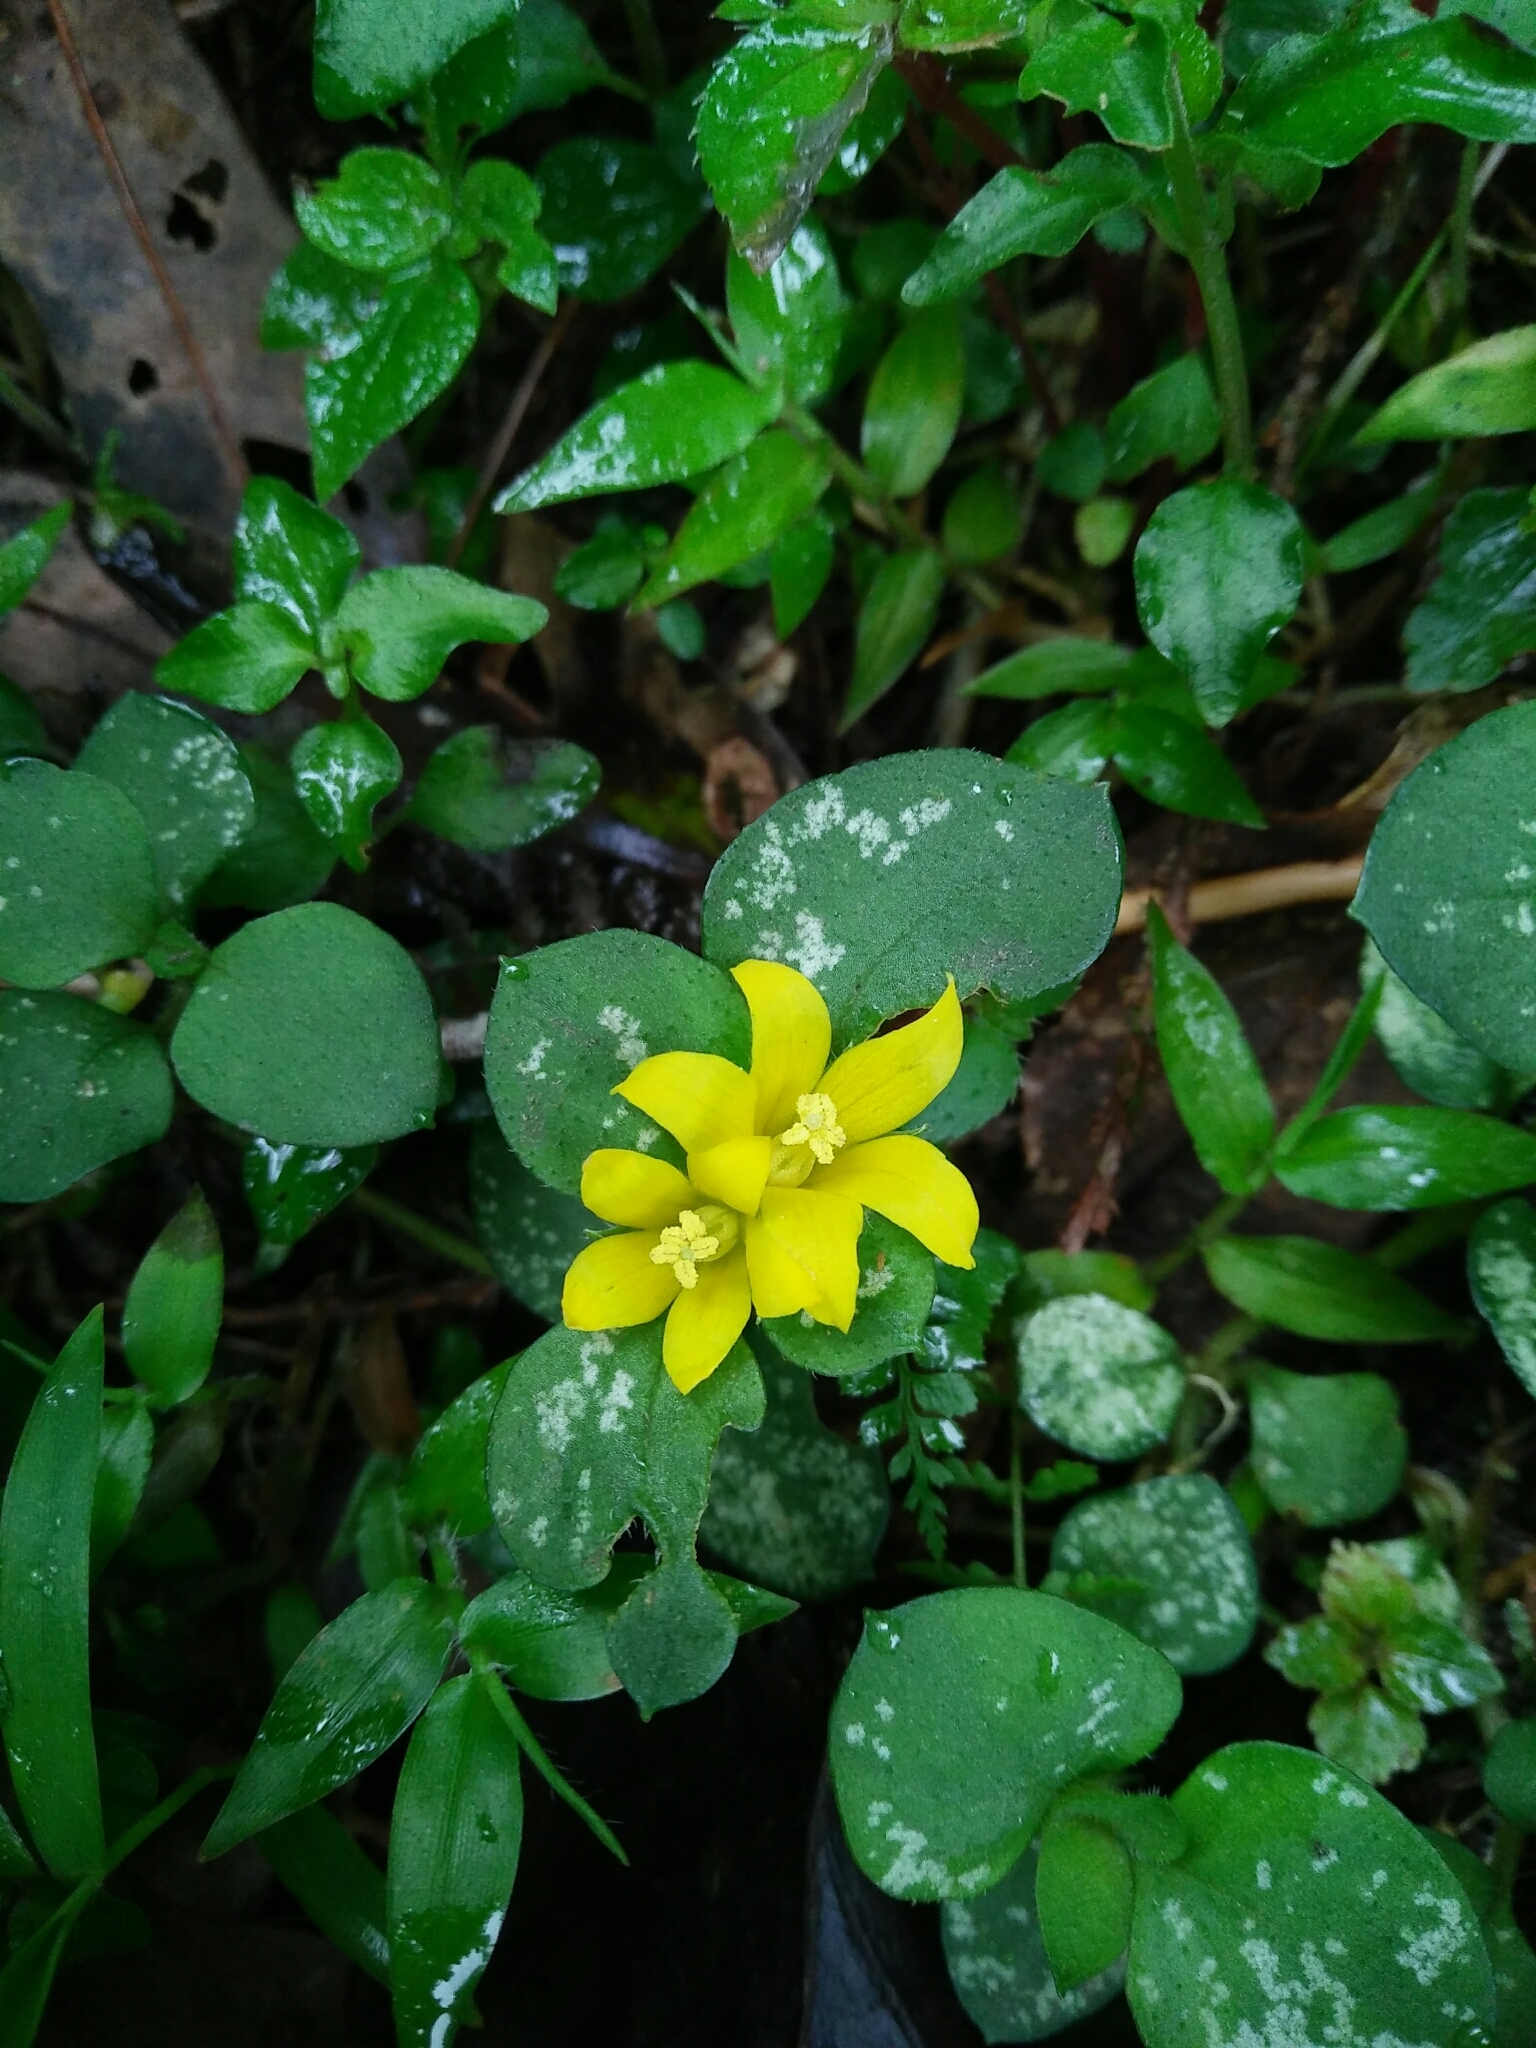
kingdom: Plantae
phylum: Tracheophyta
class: Magnoliopsida
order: Ericales
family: Primulaceae
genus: Lysimachia
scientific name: Lysimachia congestiflora
